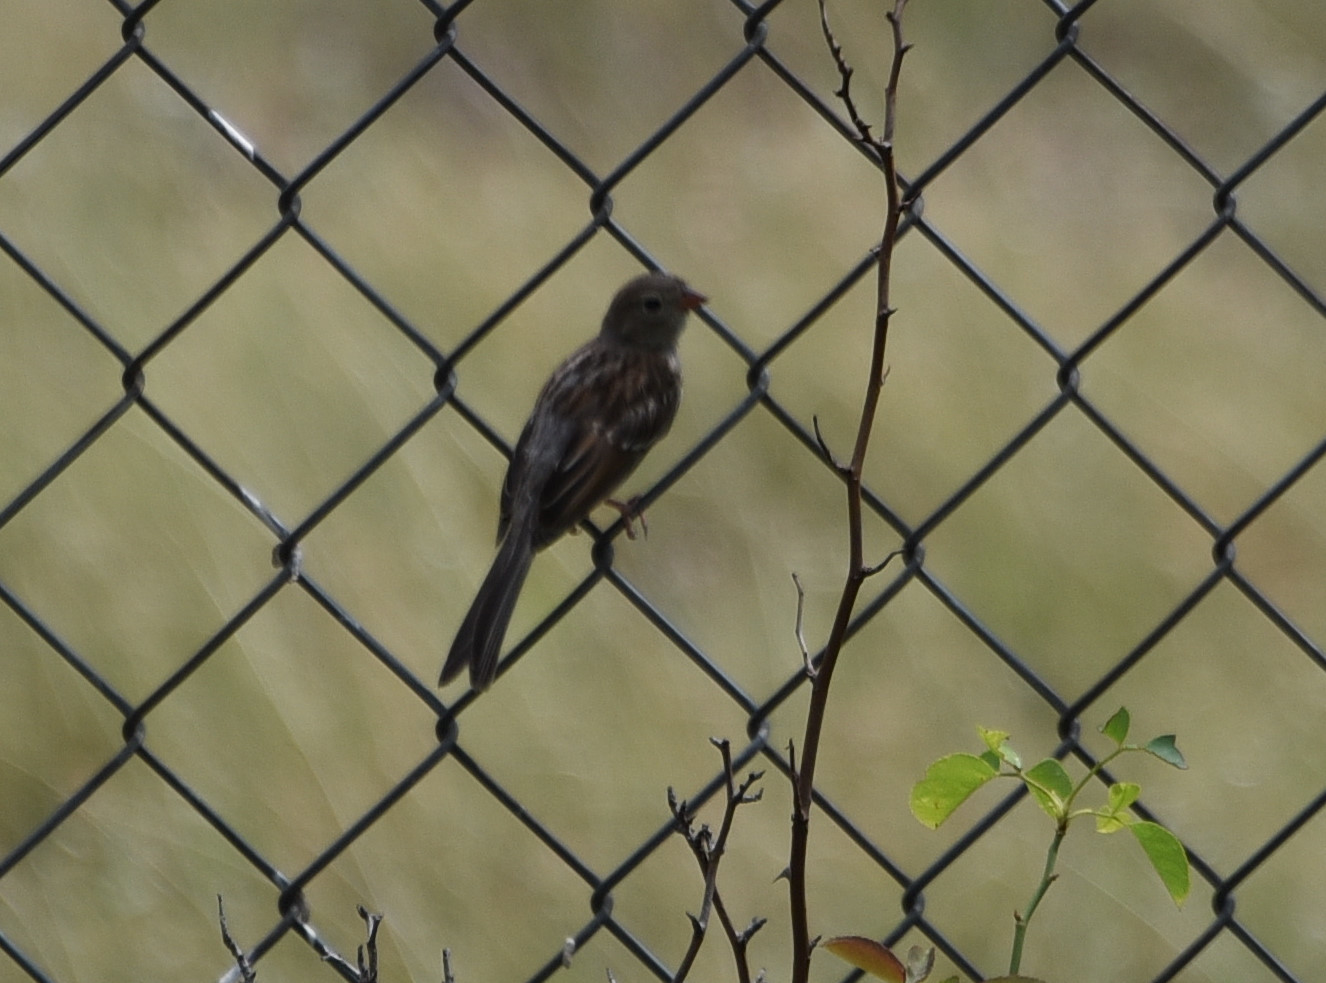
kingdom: Animalia
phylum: Chordata
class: Aves
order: Passeriformes
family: Passerellidae
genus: Spizella
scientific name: Spizella pusilla
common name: Field sparrow
